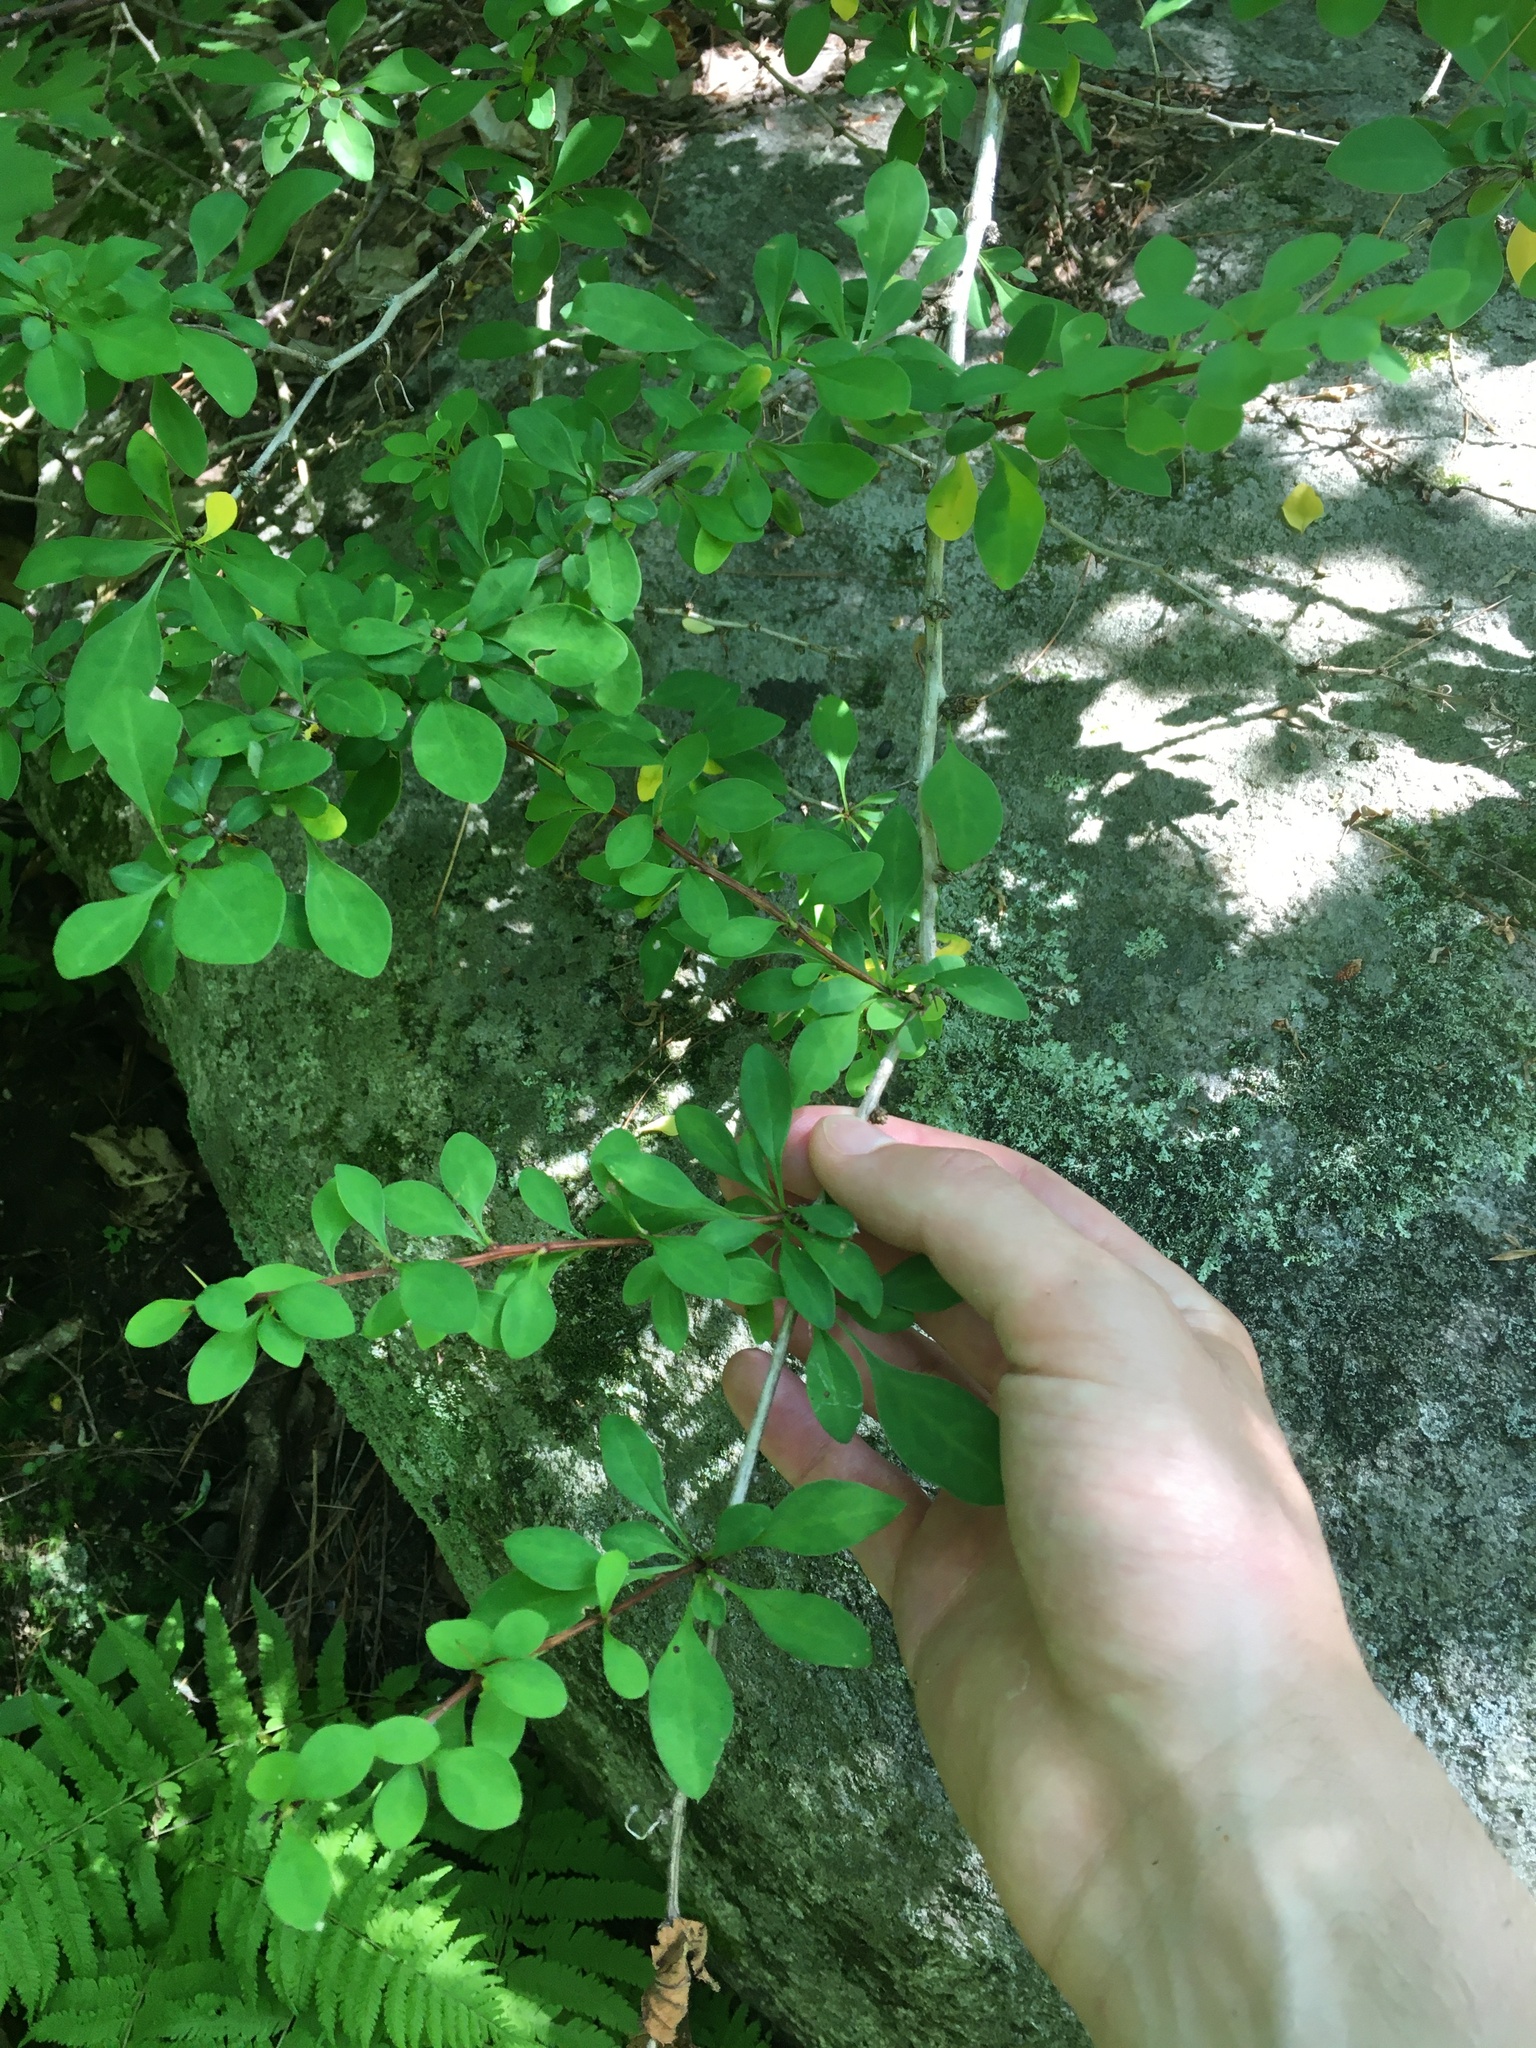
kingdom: Plantae
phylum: Tracheophyta
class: Magnoliopsida
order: Ranunculales
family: Berberidaceae
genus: Berberis
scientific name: Berberis thunbergii
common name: Japanese barberry
